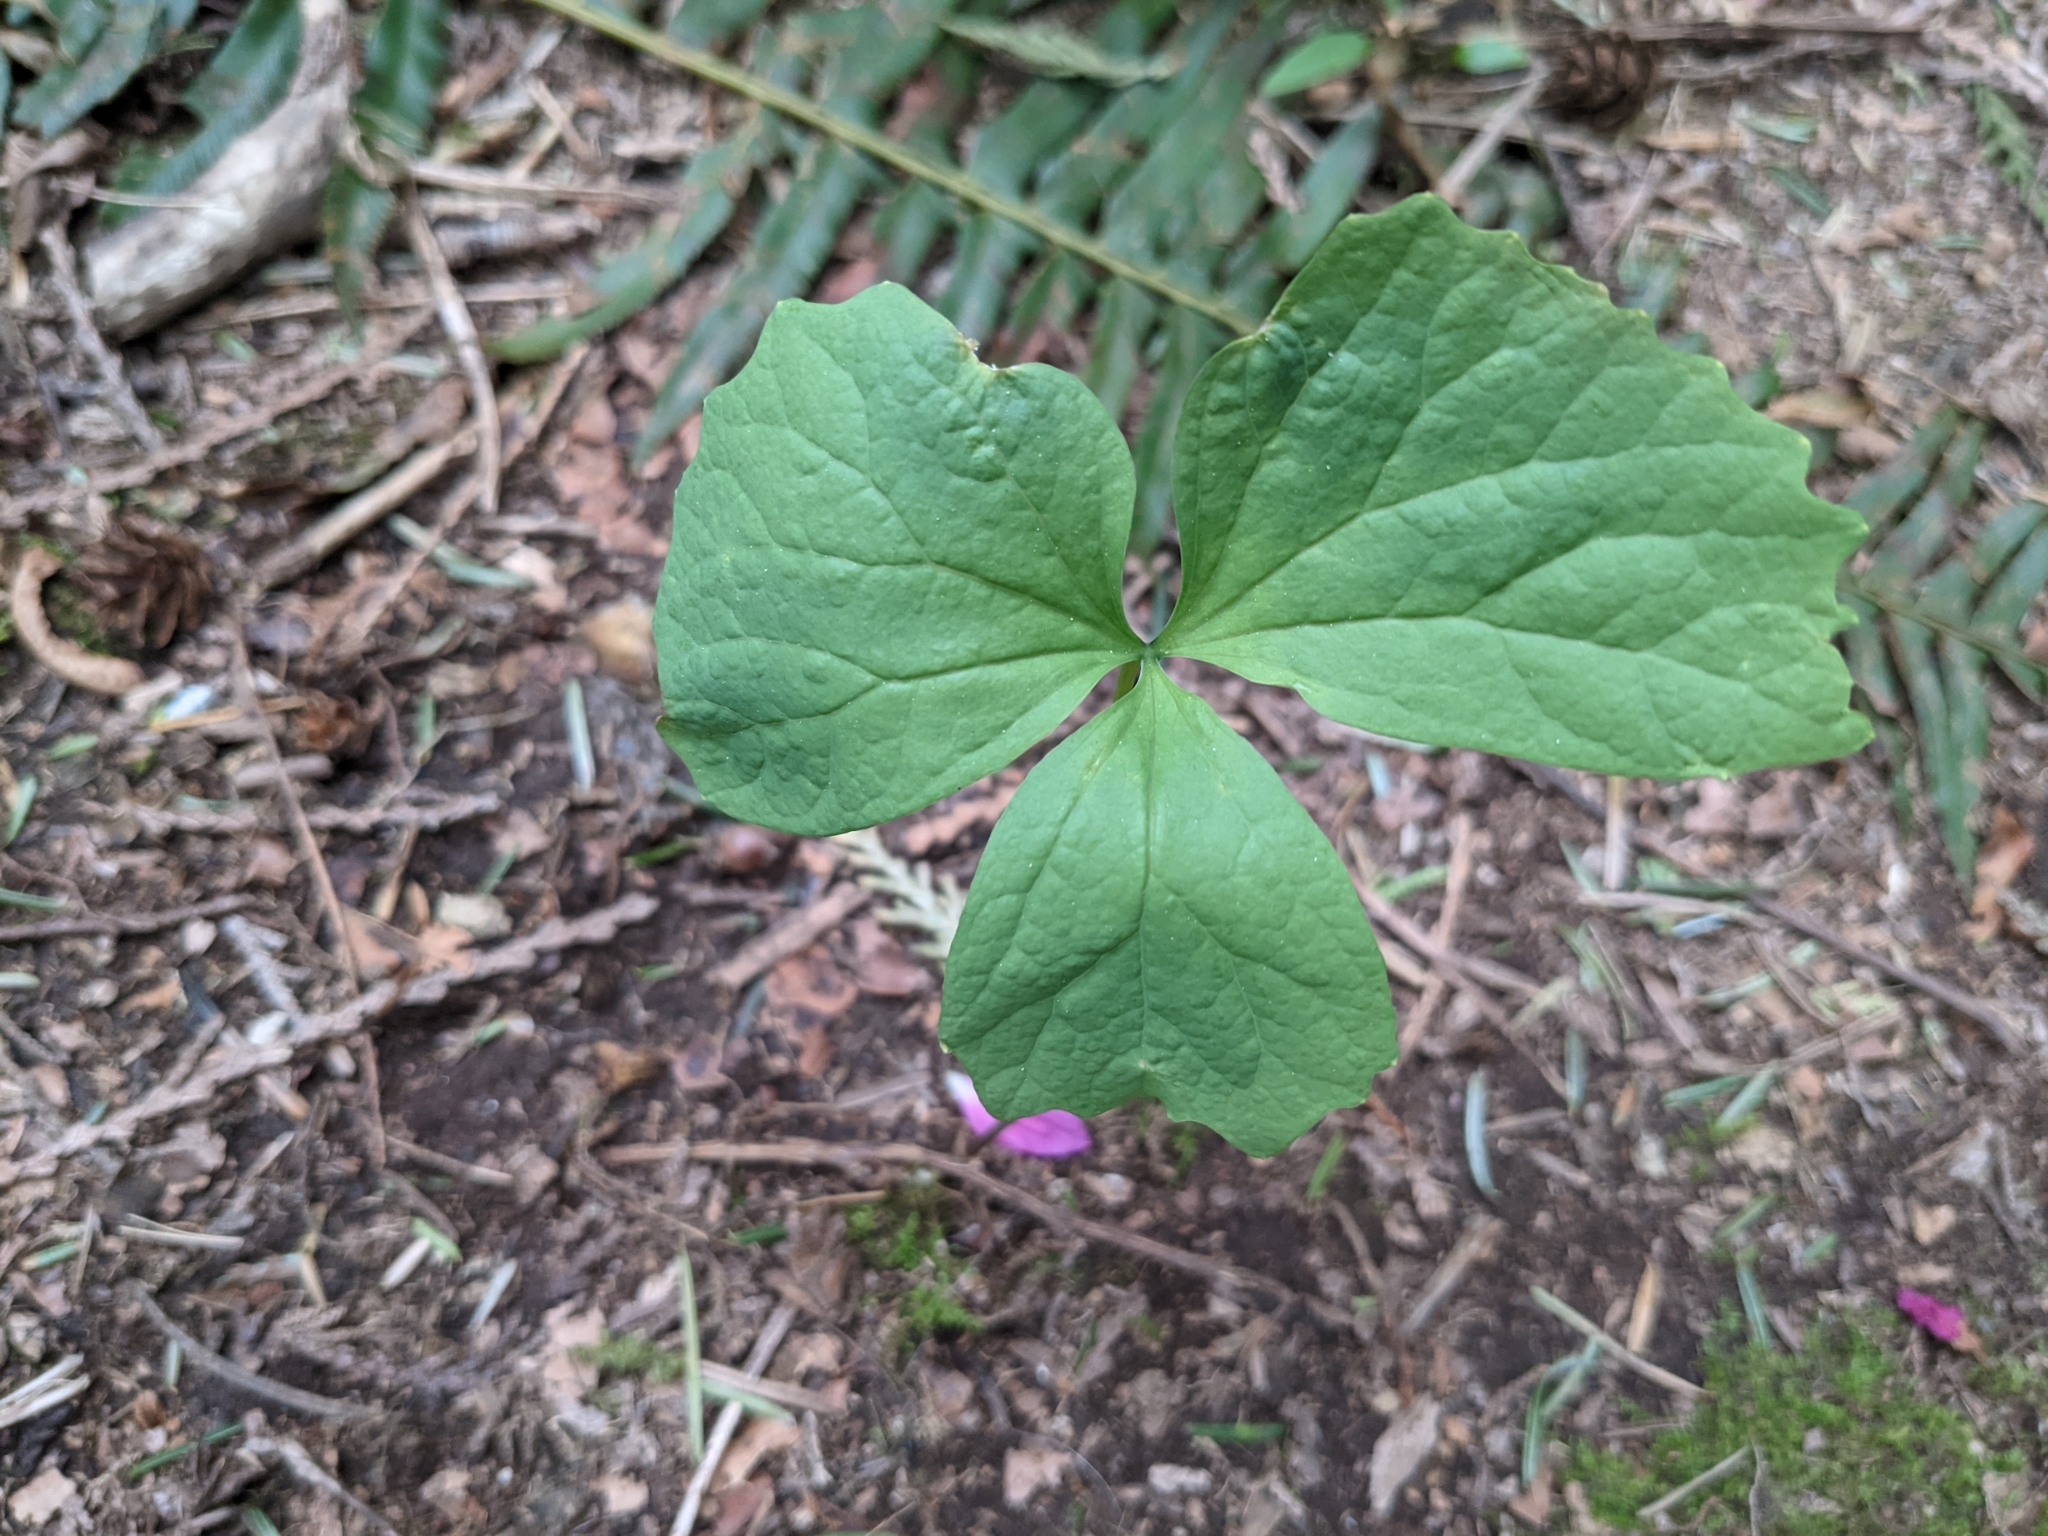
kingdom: Plantae
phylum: Tracheophyta
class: Magnoliopsida
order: Ranunculales
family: Berberidaceae
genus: Achlys
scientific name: Achlys triphylla
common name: Vanilla-leaf
